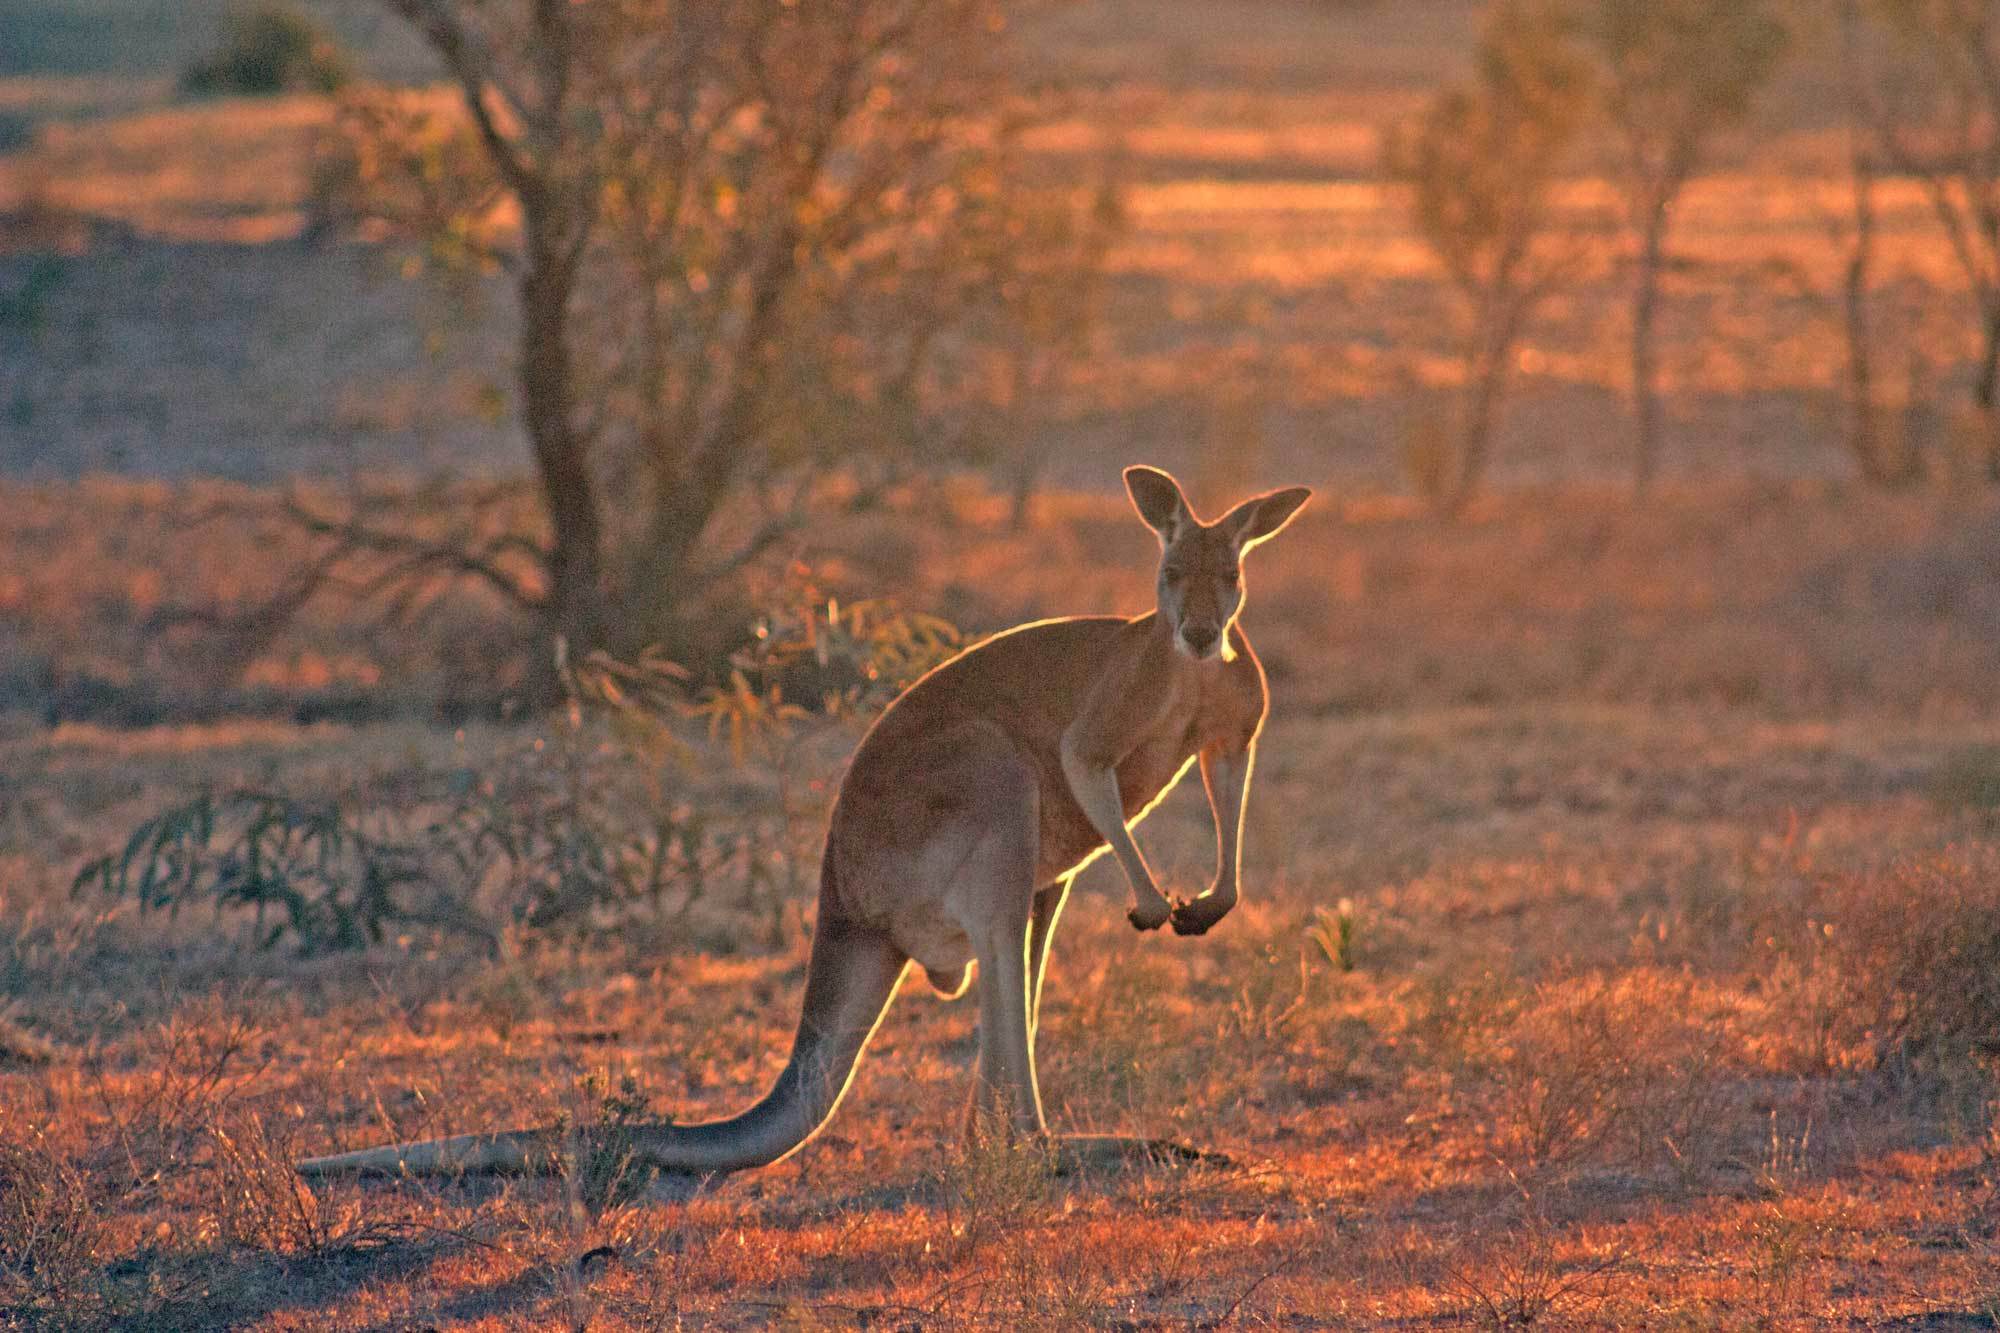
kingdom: Animalia
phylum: Chordata
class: Mammalia
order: Diprotodontia
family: Macropodidae
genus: Macropus
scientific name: Macropus rufus
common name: Red kangaroo
